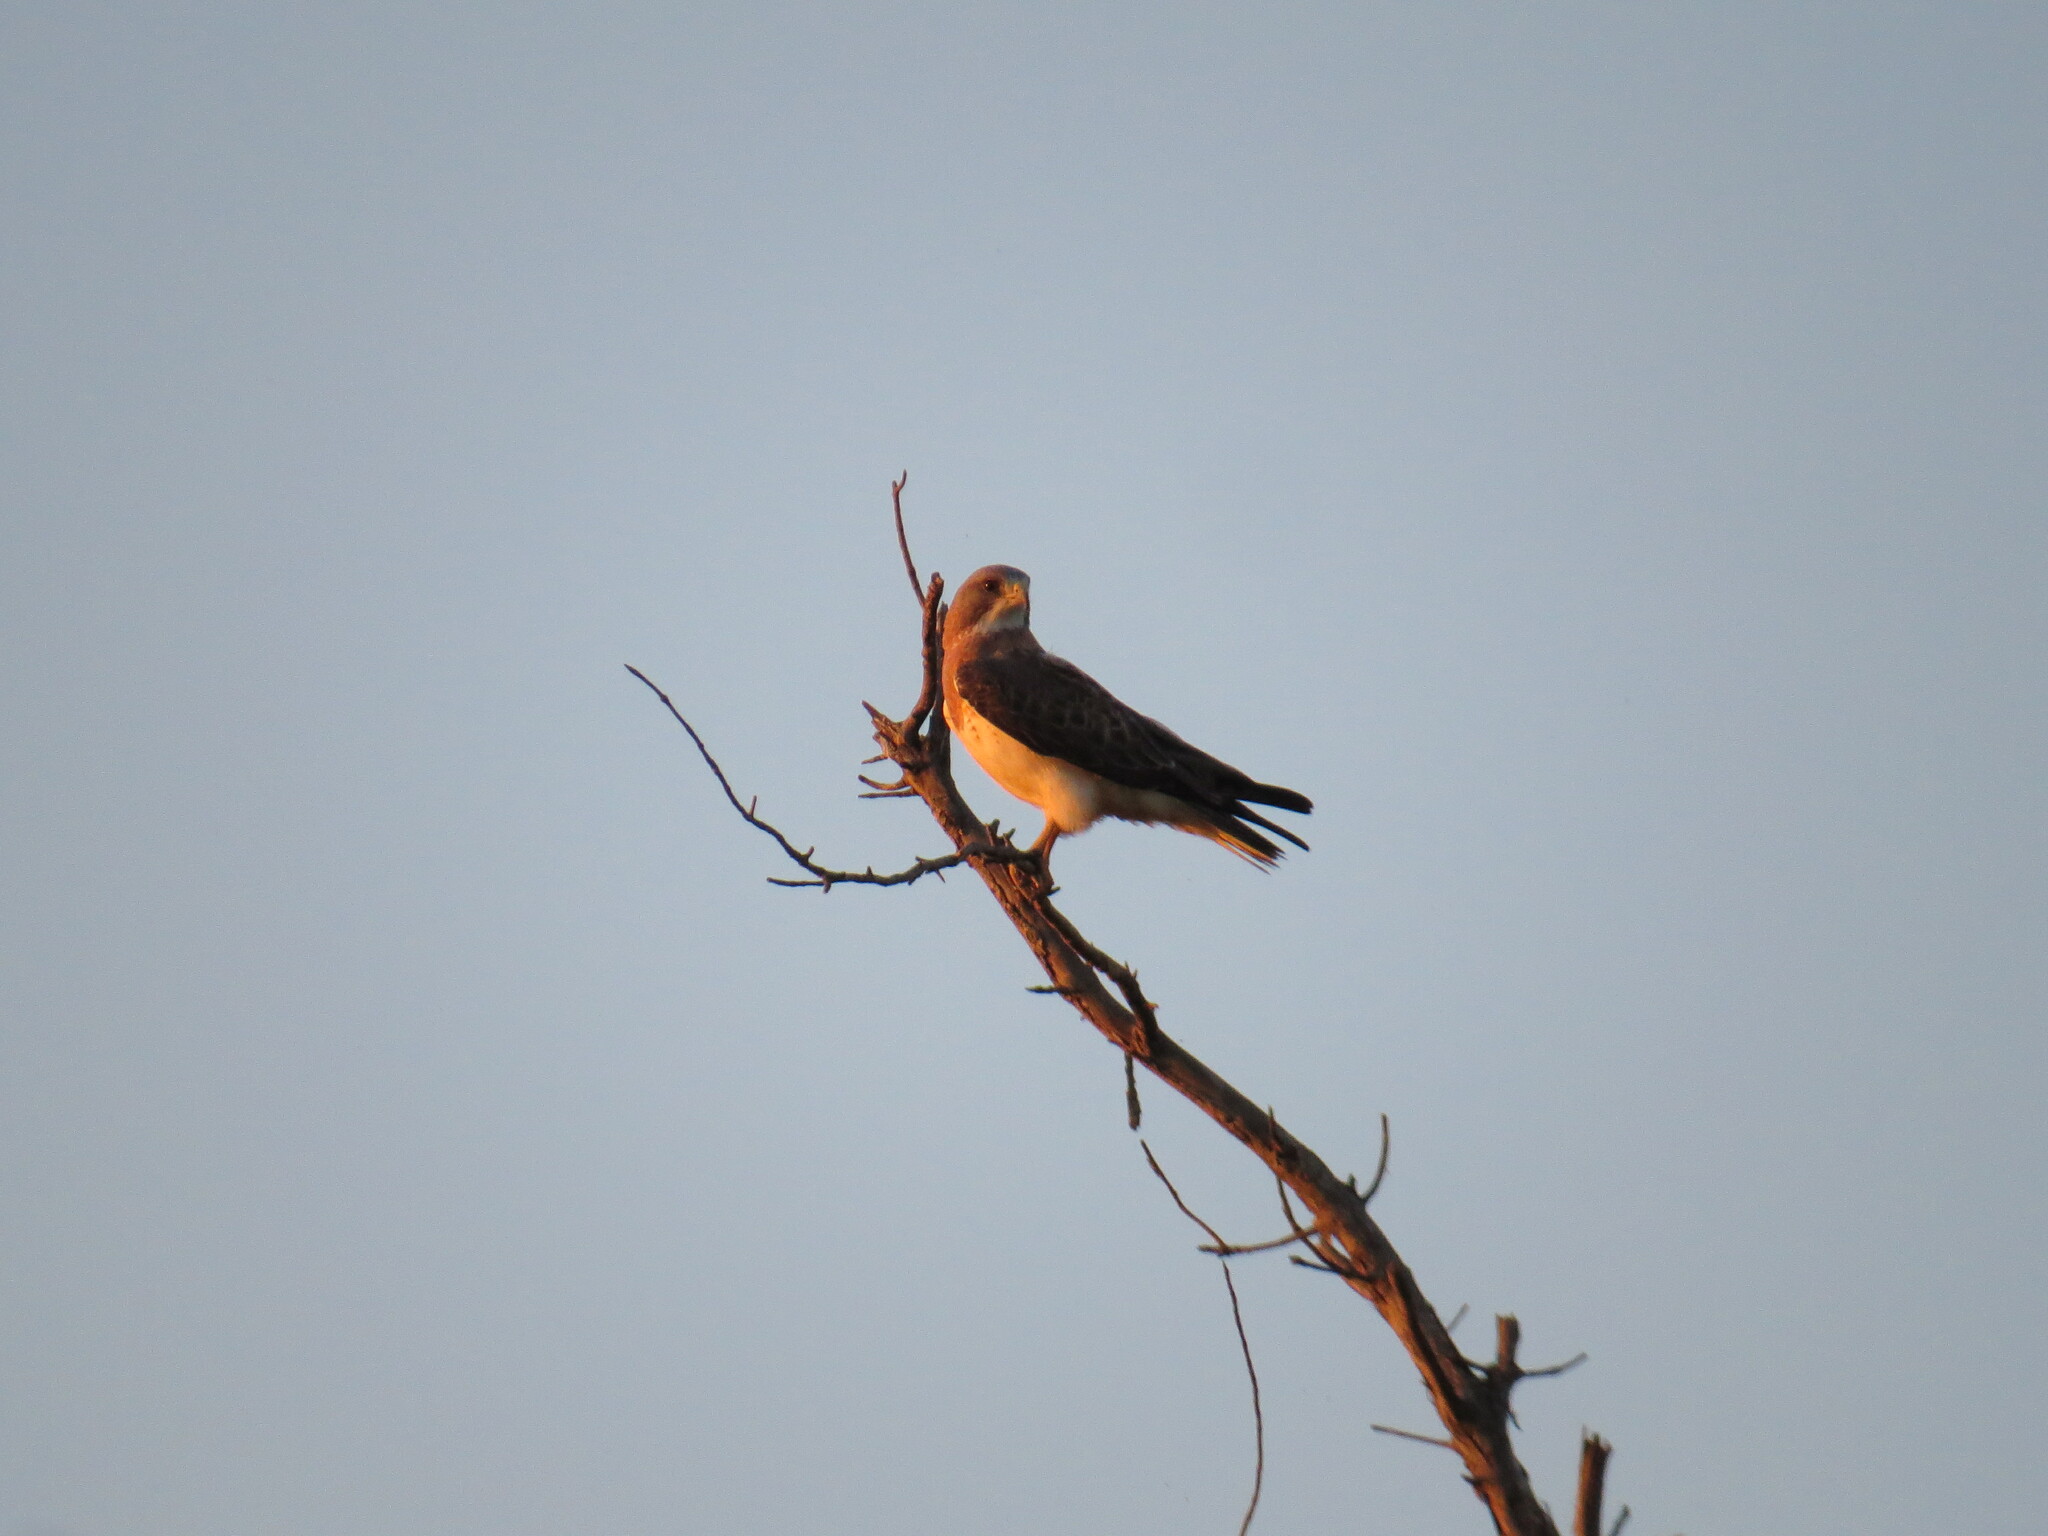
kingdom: Animalia
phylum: Chordata
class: Aves
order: Accipitriformes
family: Accipitridae
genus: Buteo
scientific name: Buteo swainsoni
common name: Swainson's hawk
